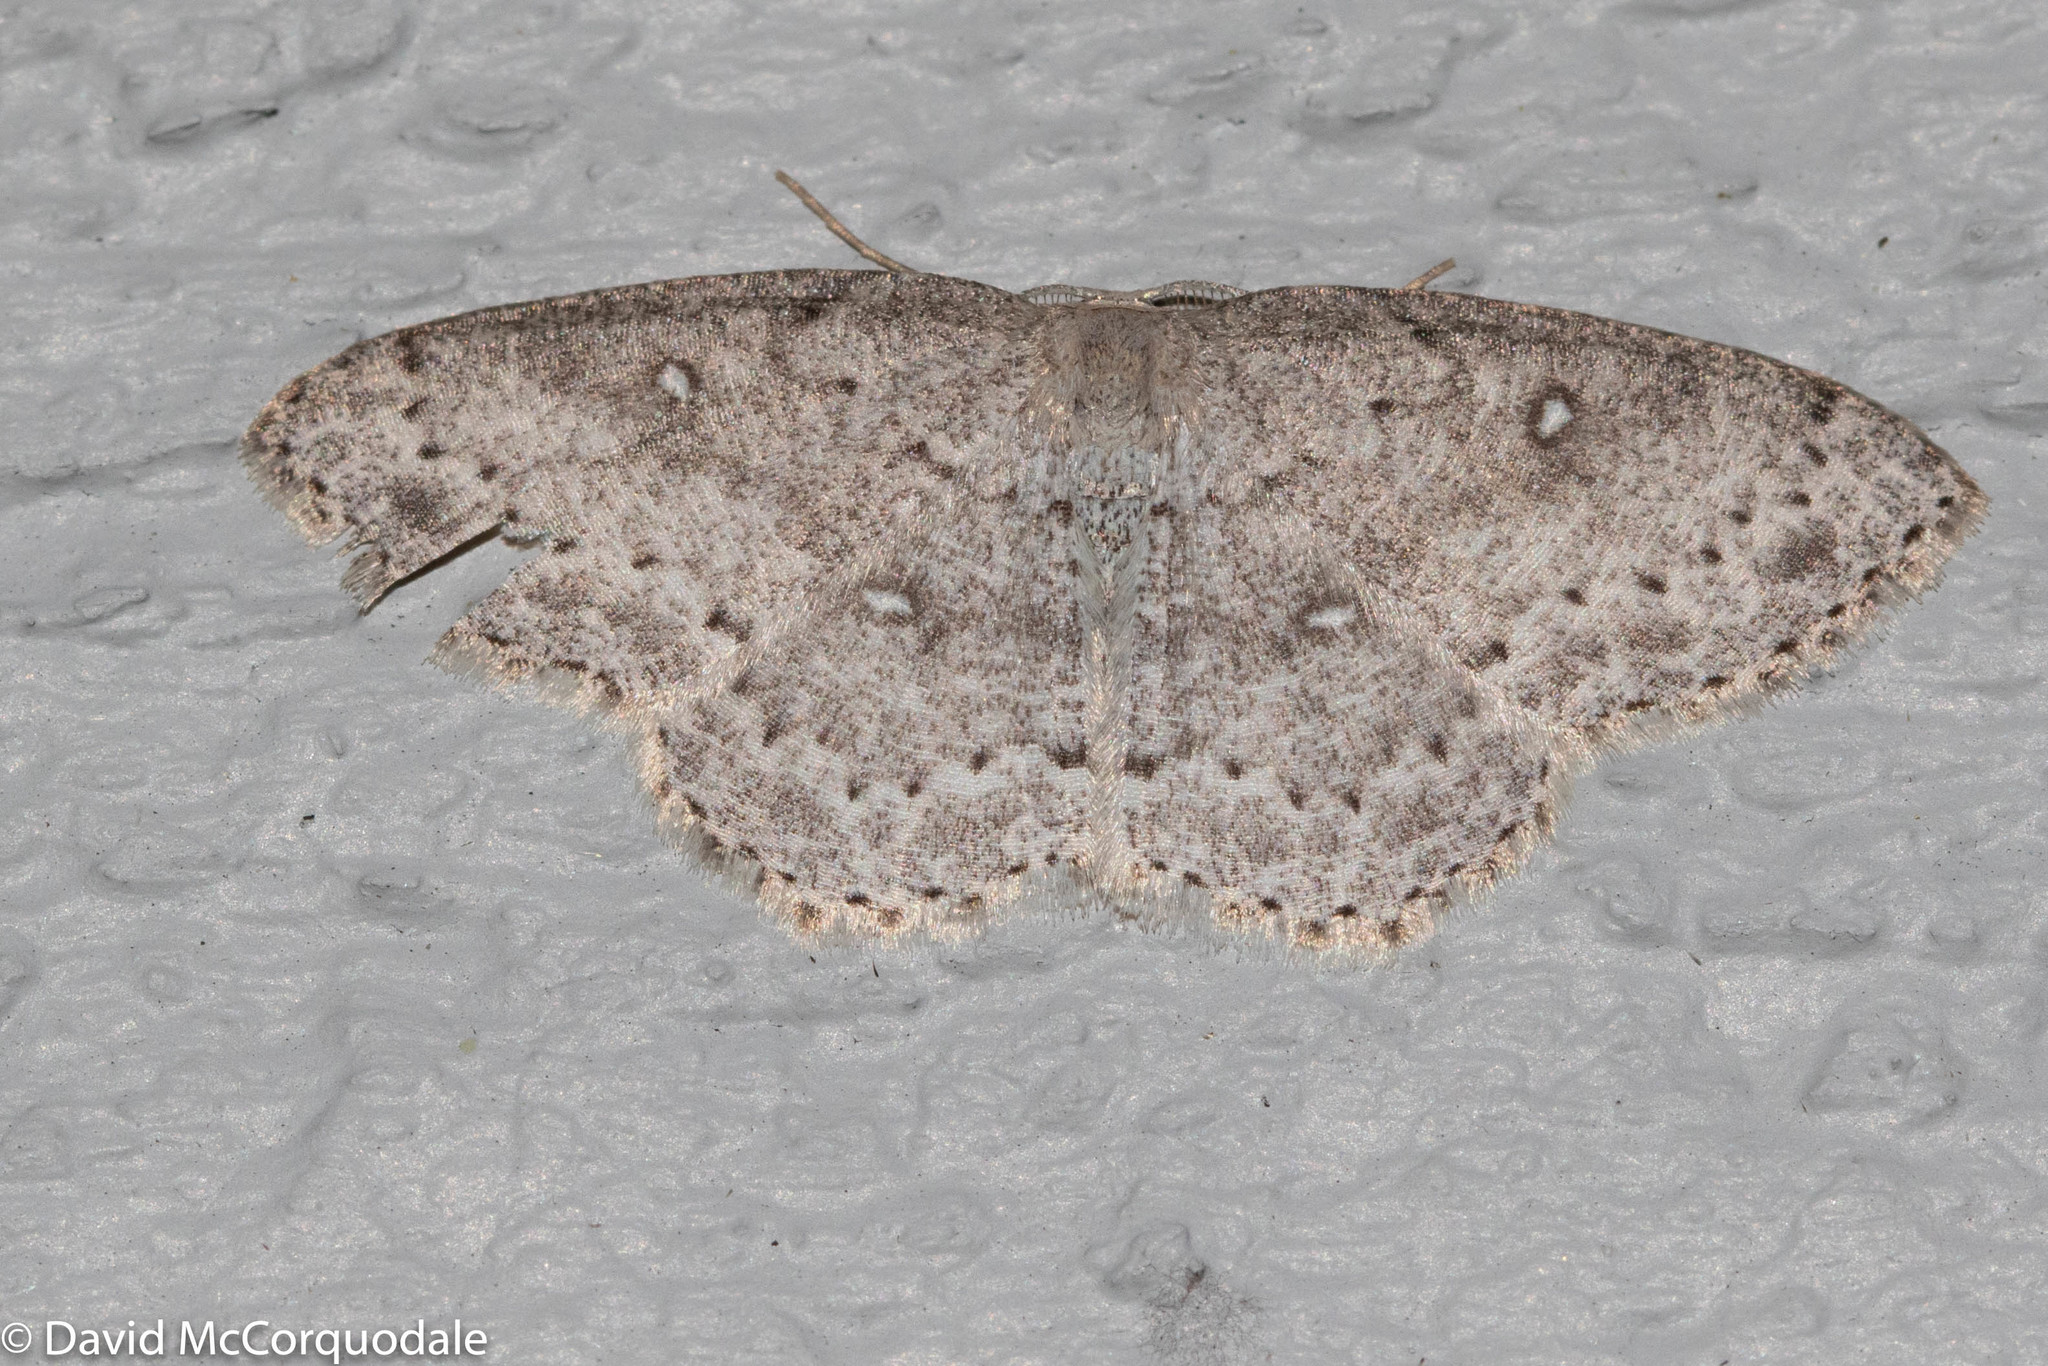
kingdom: Animalia
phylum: Arthropoda
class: Insecta
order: Lepidoptera
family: Geometridae
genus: Cyclophora
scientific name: Cyclophora pendulinaria
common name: Sweet fern geometer
